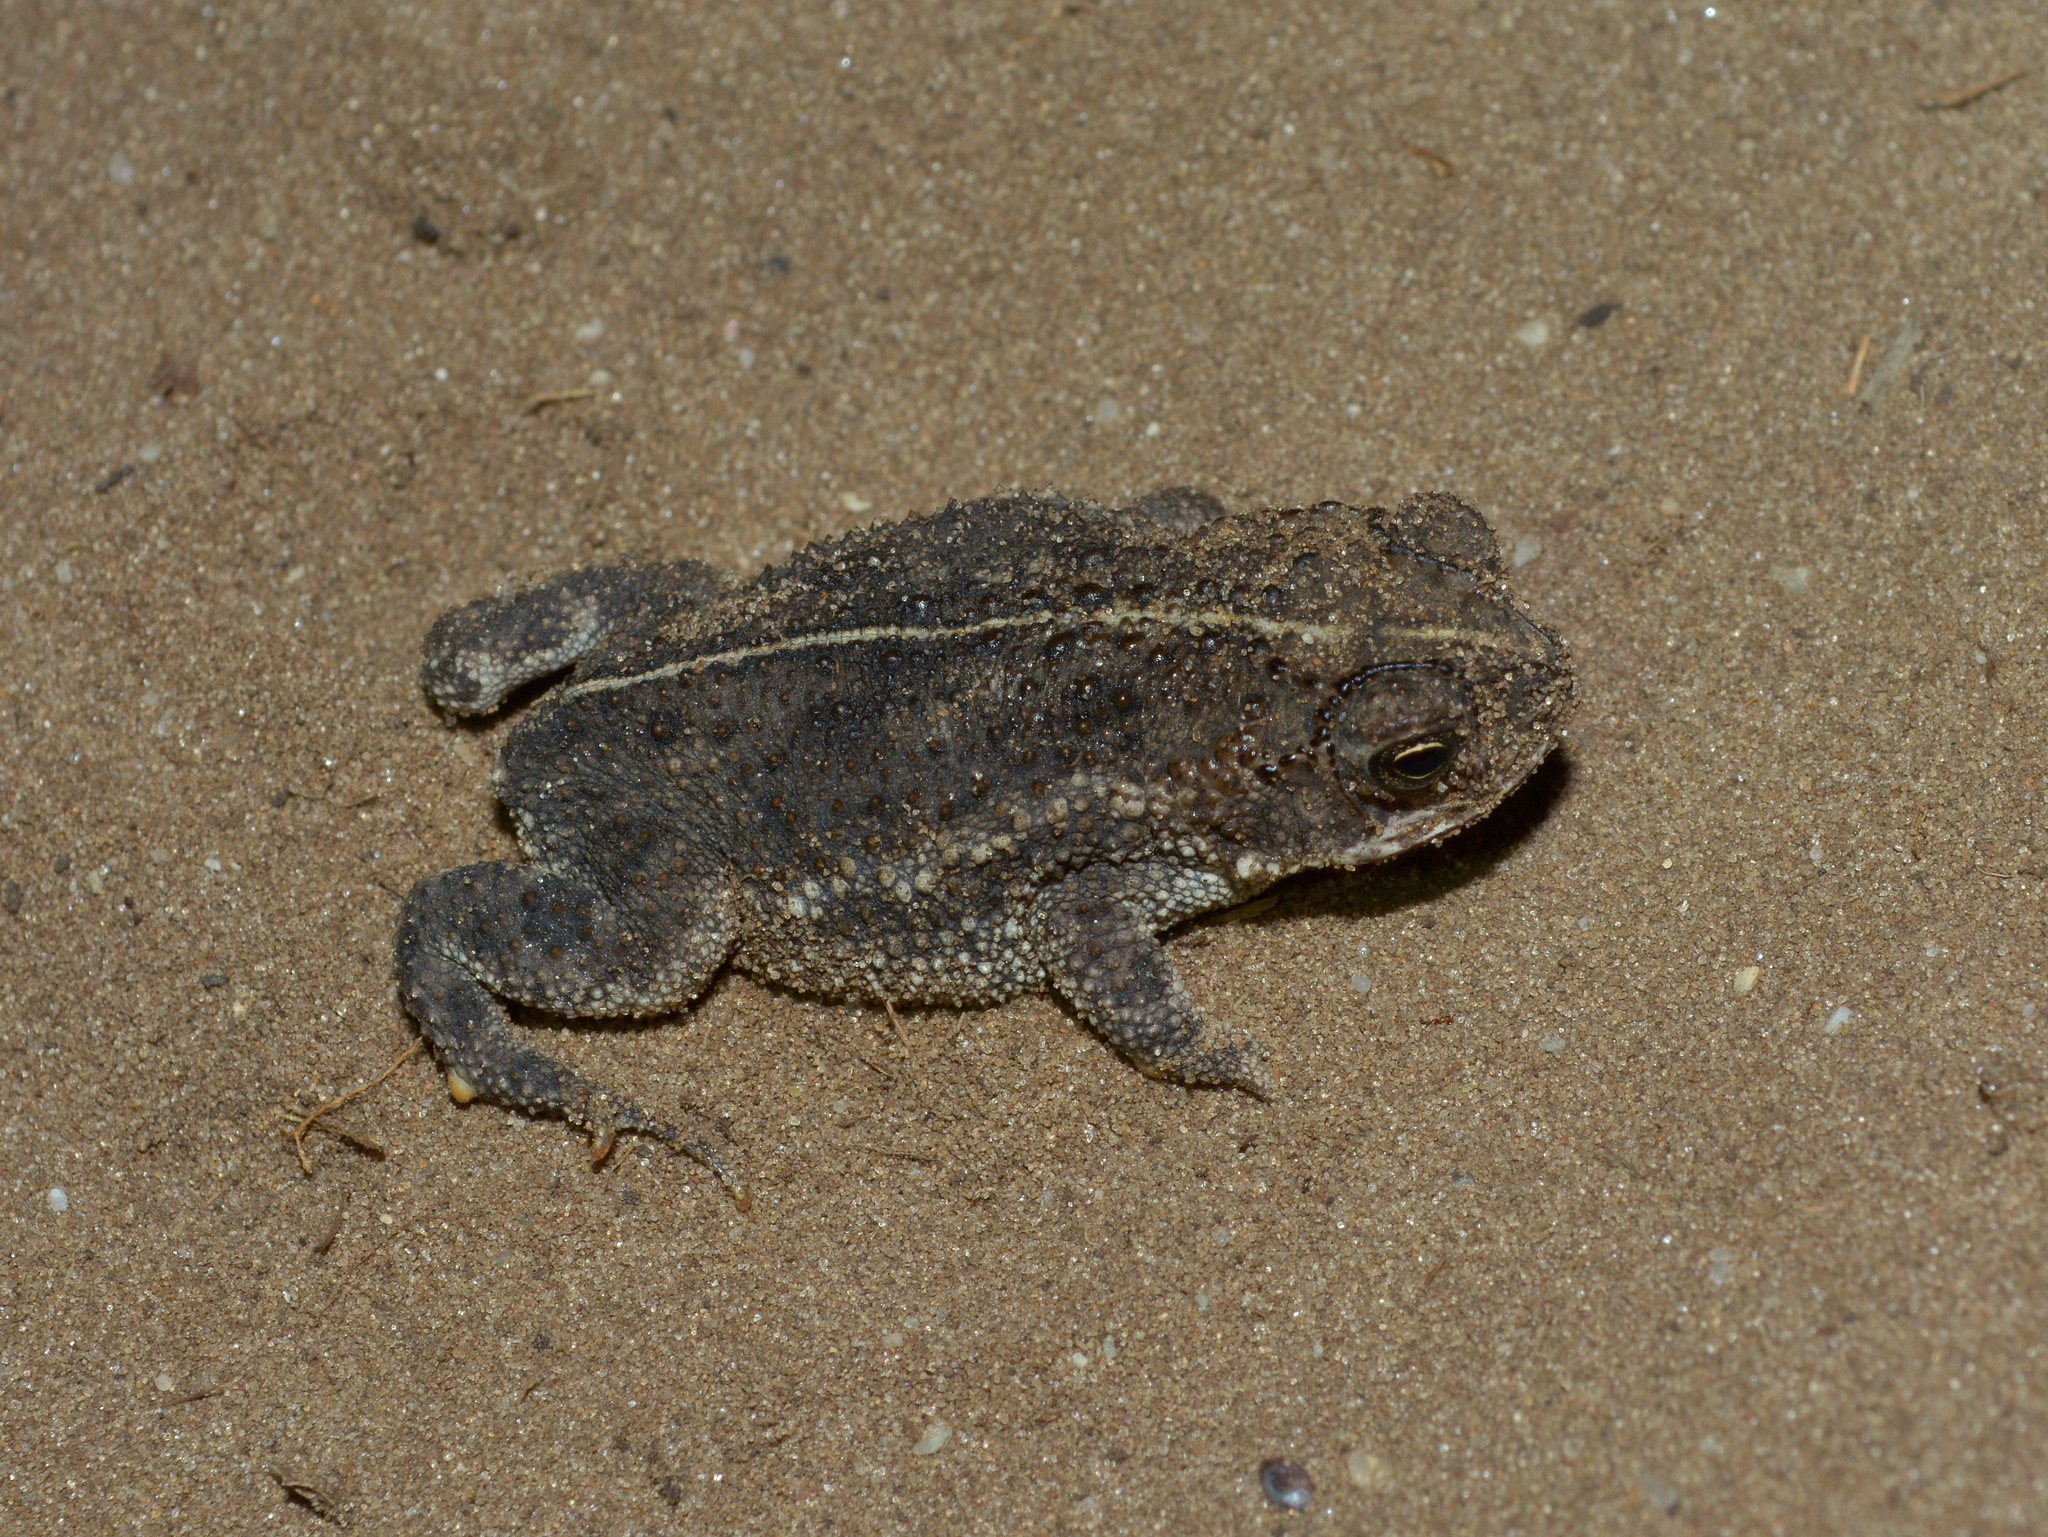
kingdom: Animalia
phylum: Chordata
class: Amphibia
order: Anura
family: Bufonidae
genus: Rhinella
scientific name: Rhinella dorbignyi
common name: D´orbigny’s toad
